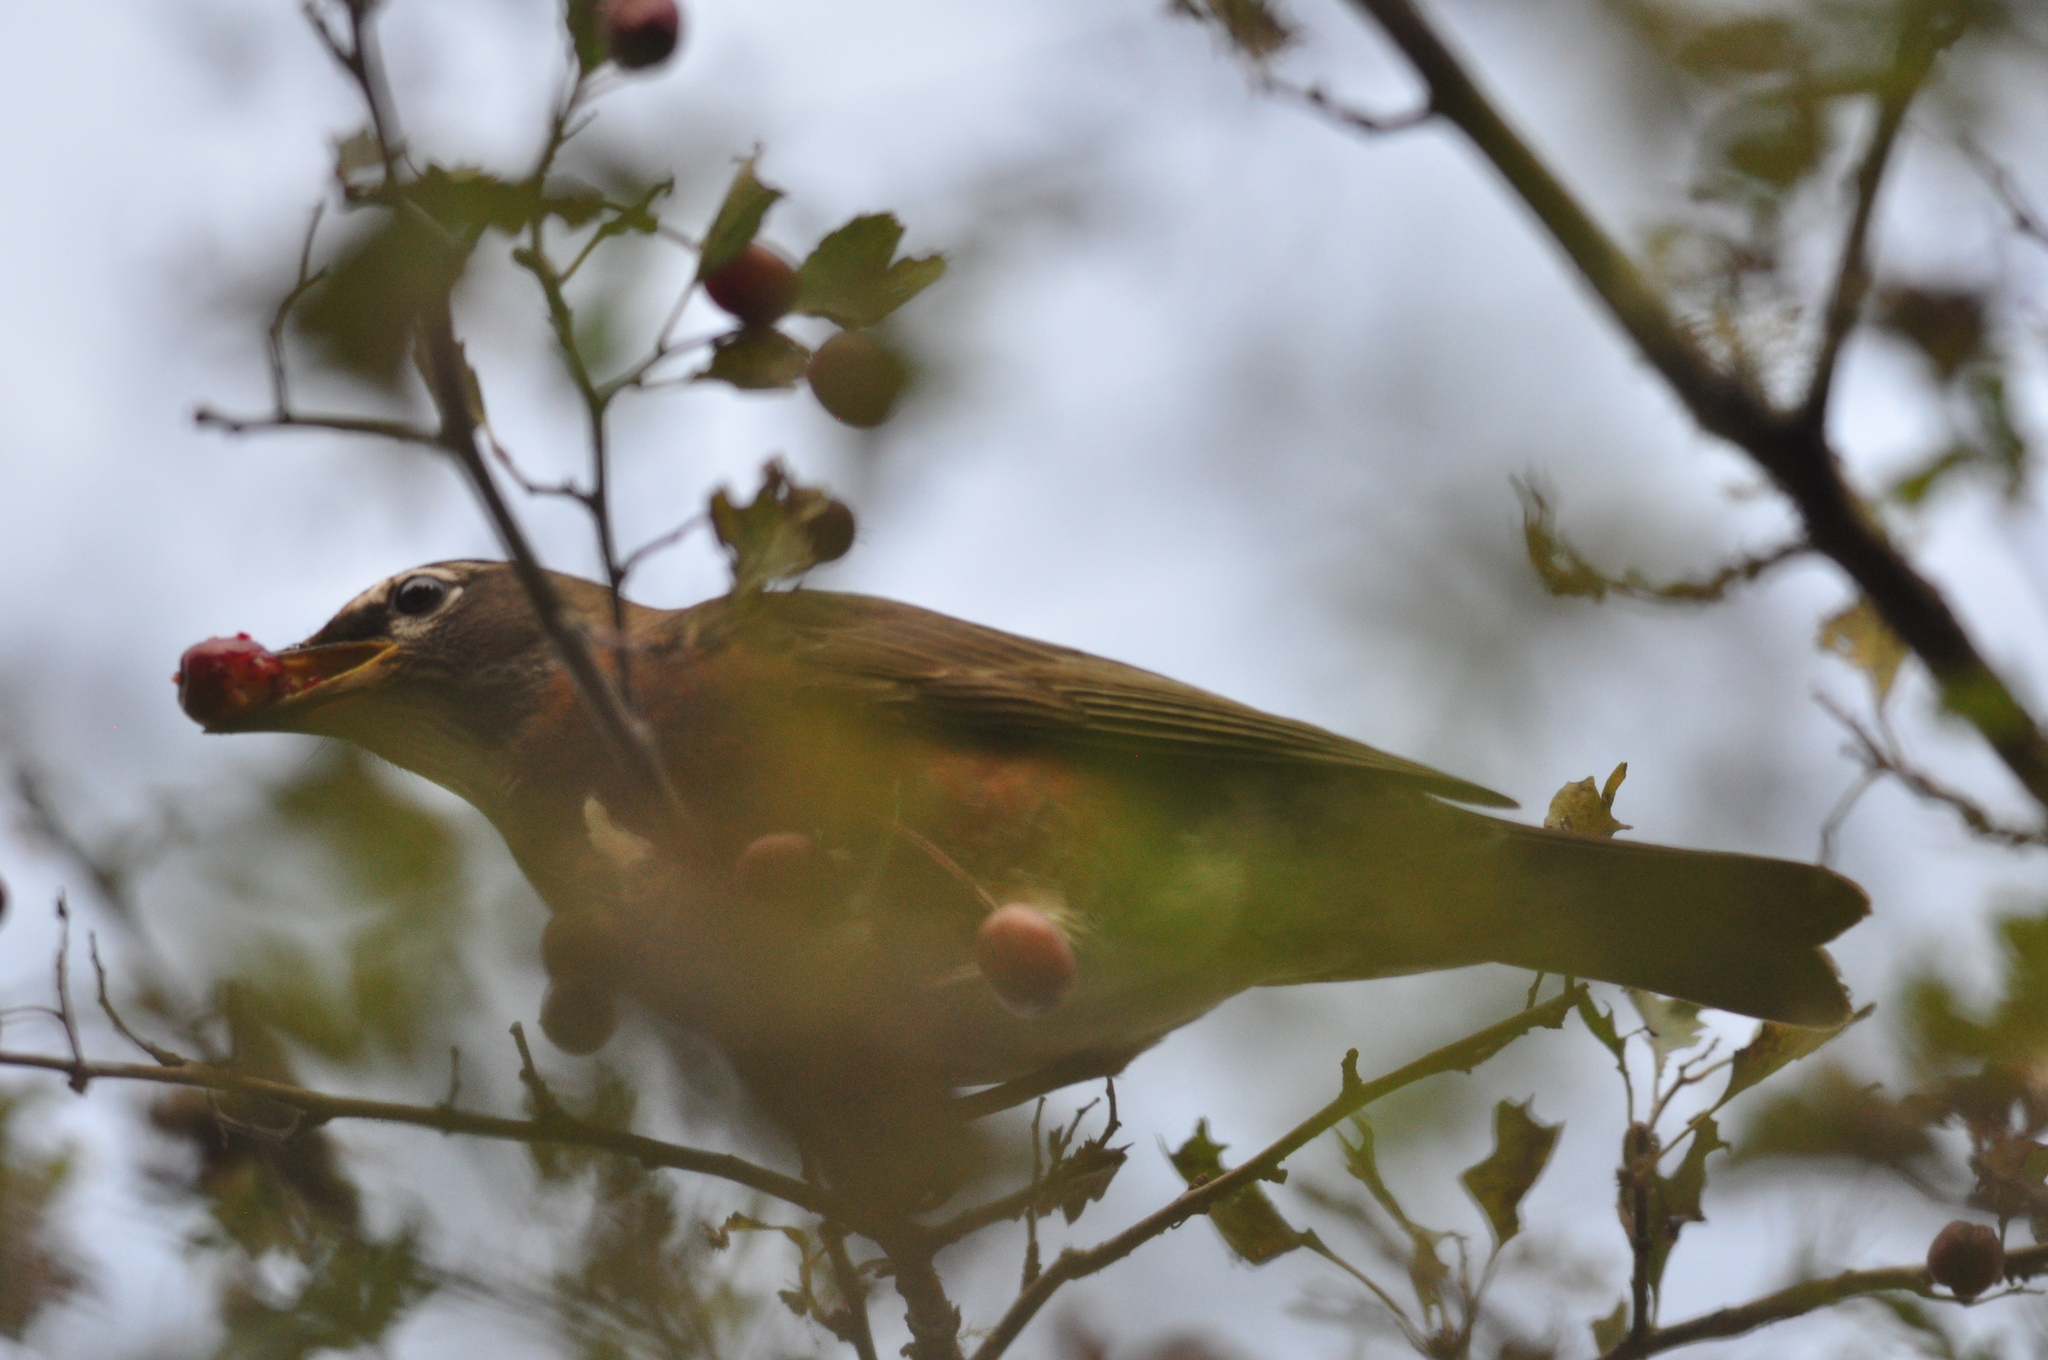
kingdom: Animalia
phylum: Chordata
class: Aves
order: Passeriformes
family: Turdidae
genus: Turdus
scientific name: Turdus migratorius
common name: American robin
